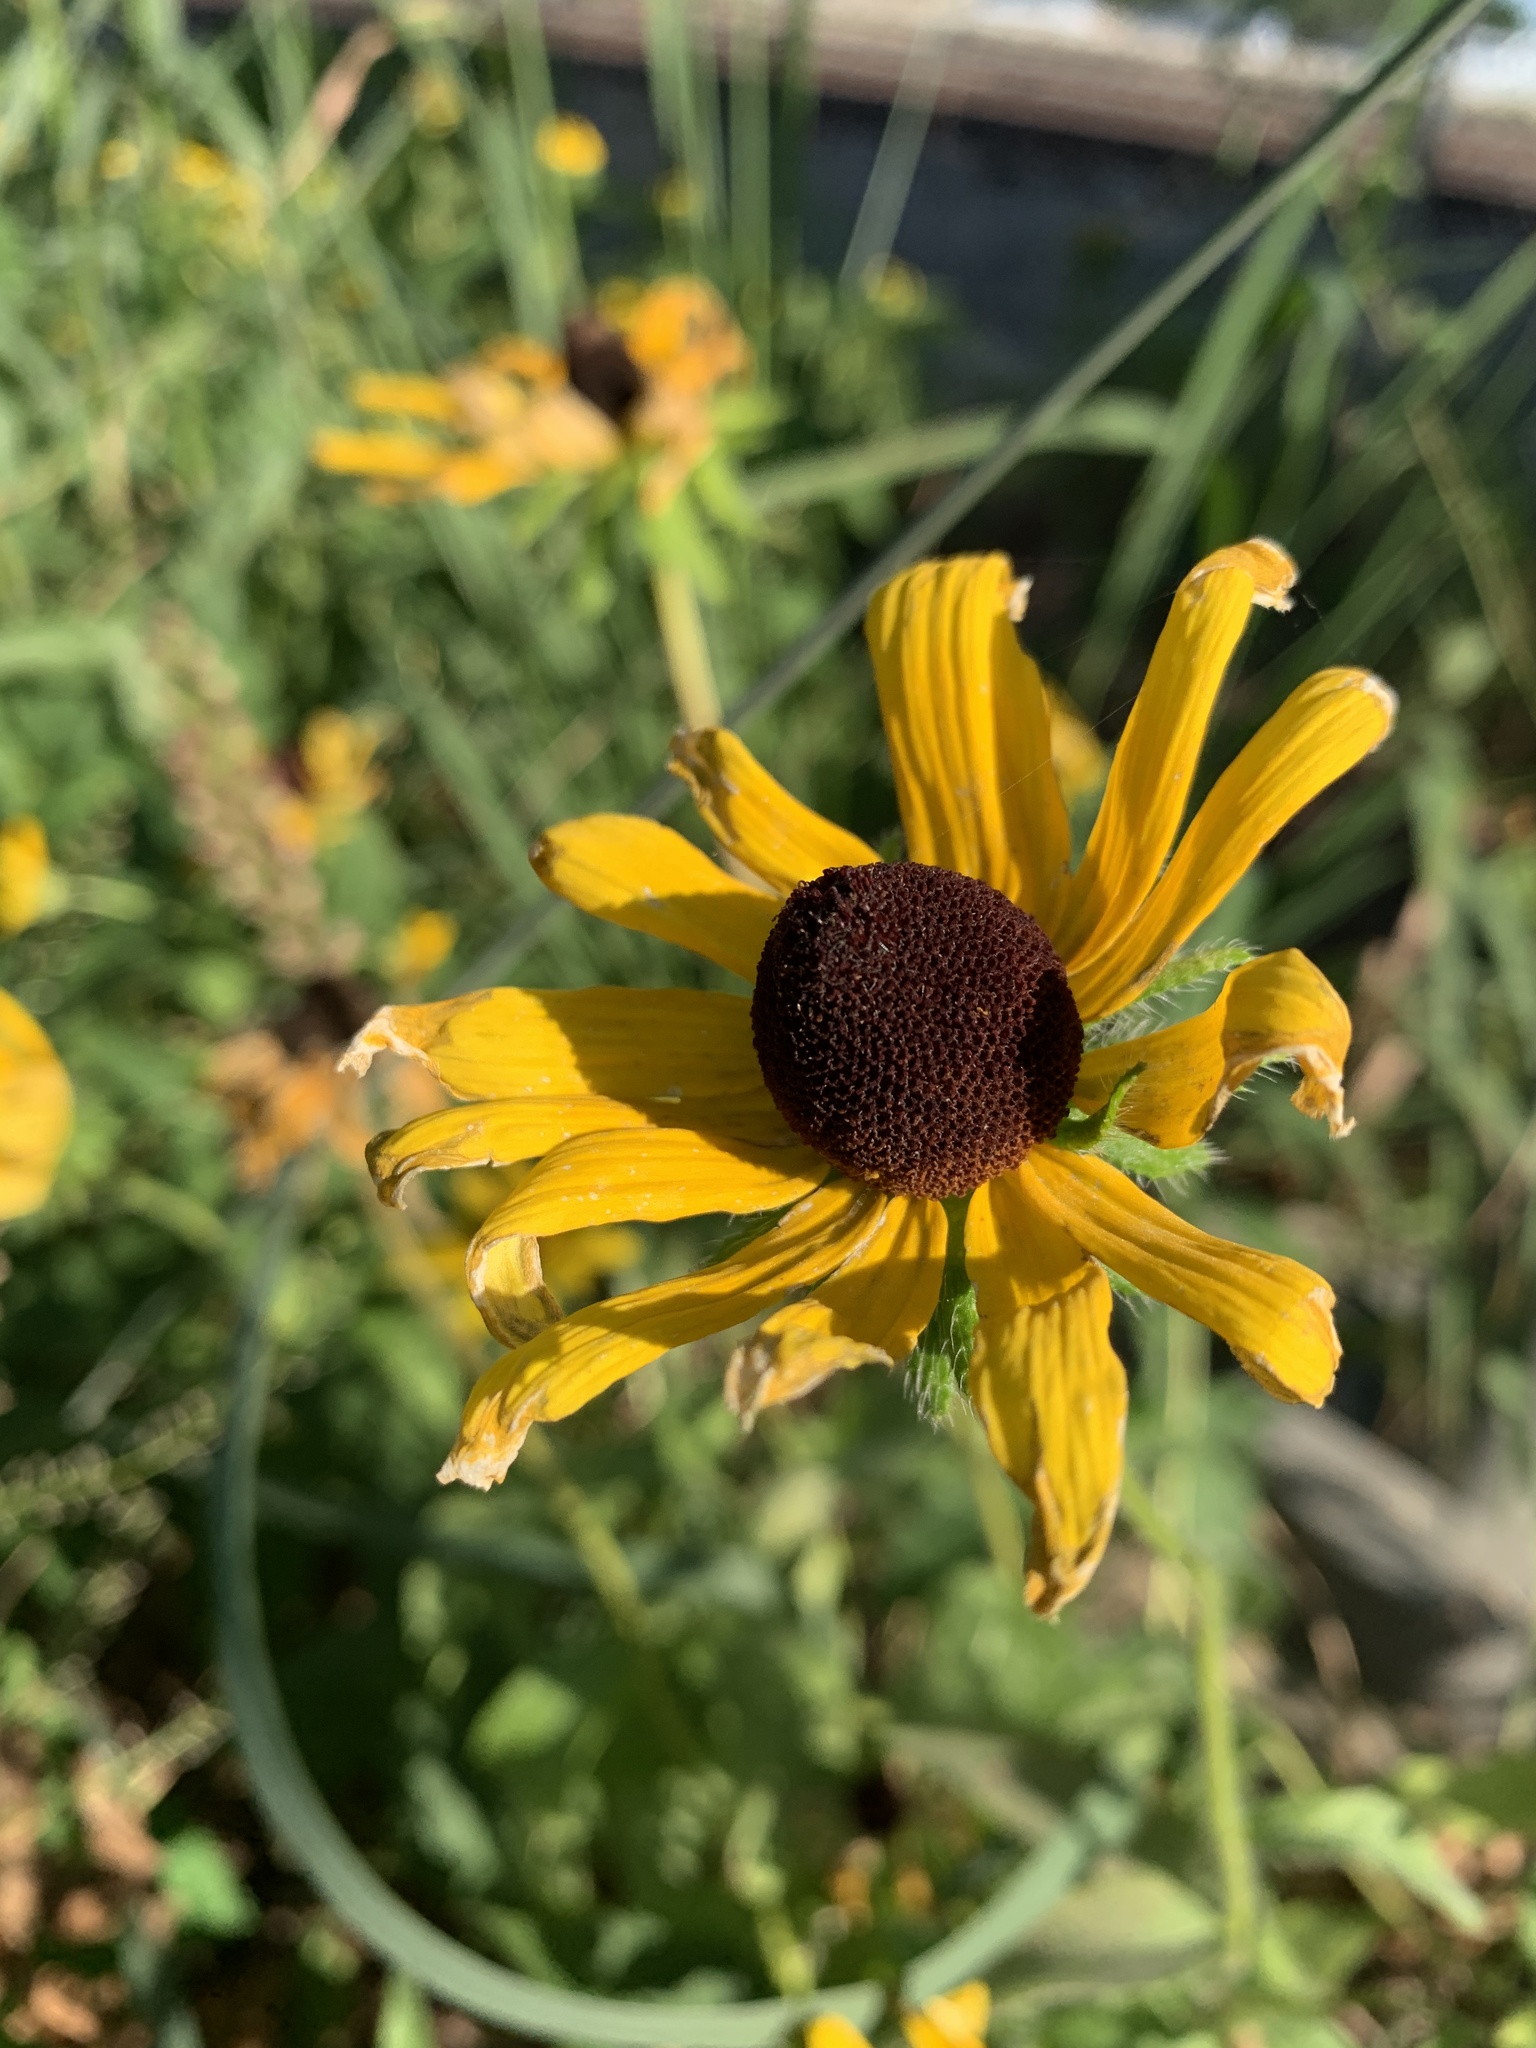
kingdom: Plantae
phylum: Tracheophyta
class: Magnoliopsida
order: Asterales
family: Asteraceae
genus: Rudbeckia
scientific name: Rudbeckia hirta
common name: Black-eyed-susan
